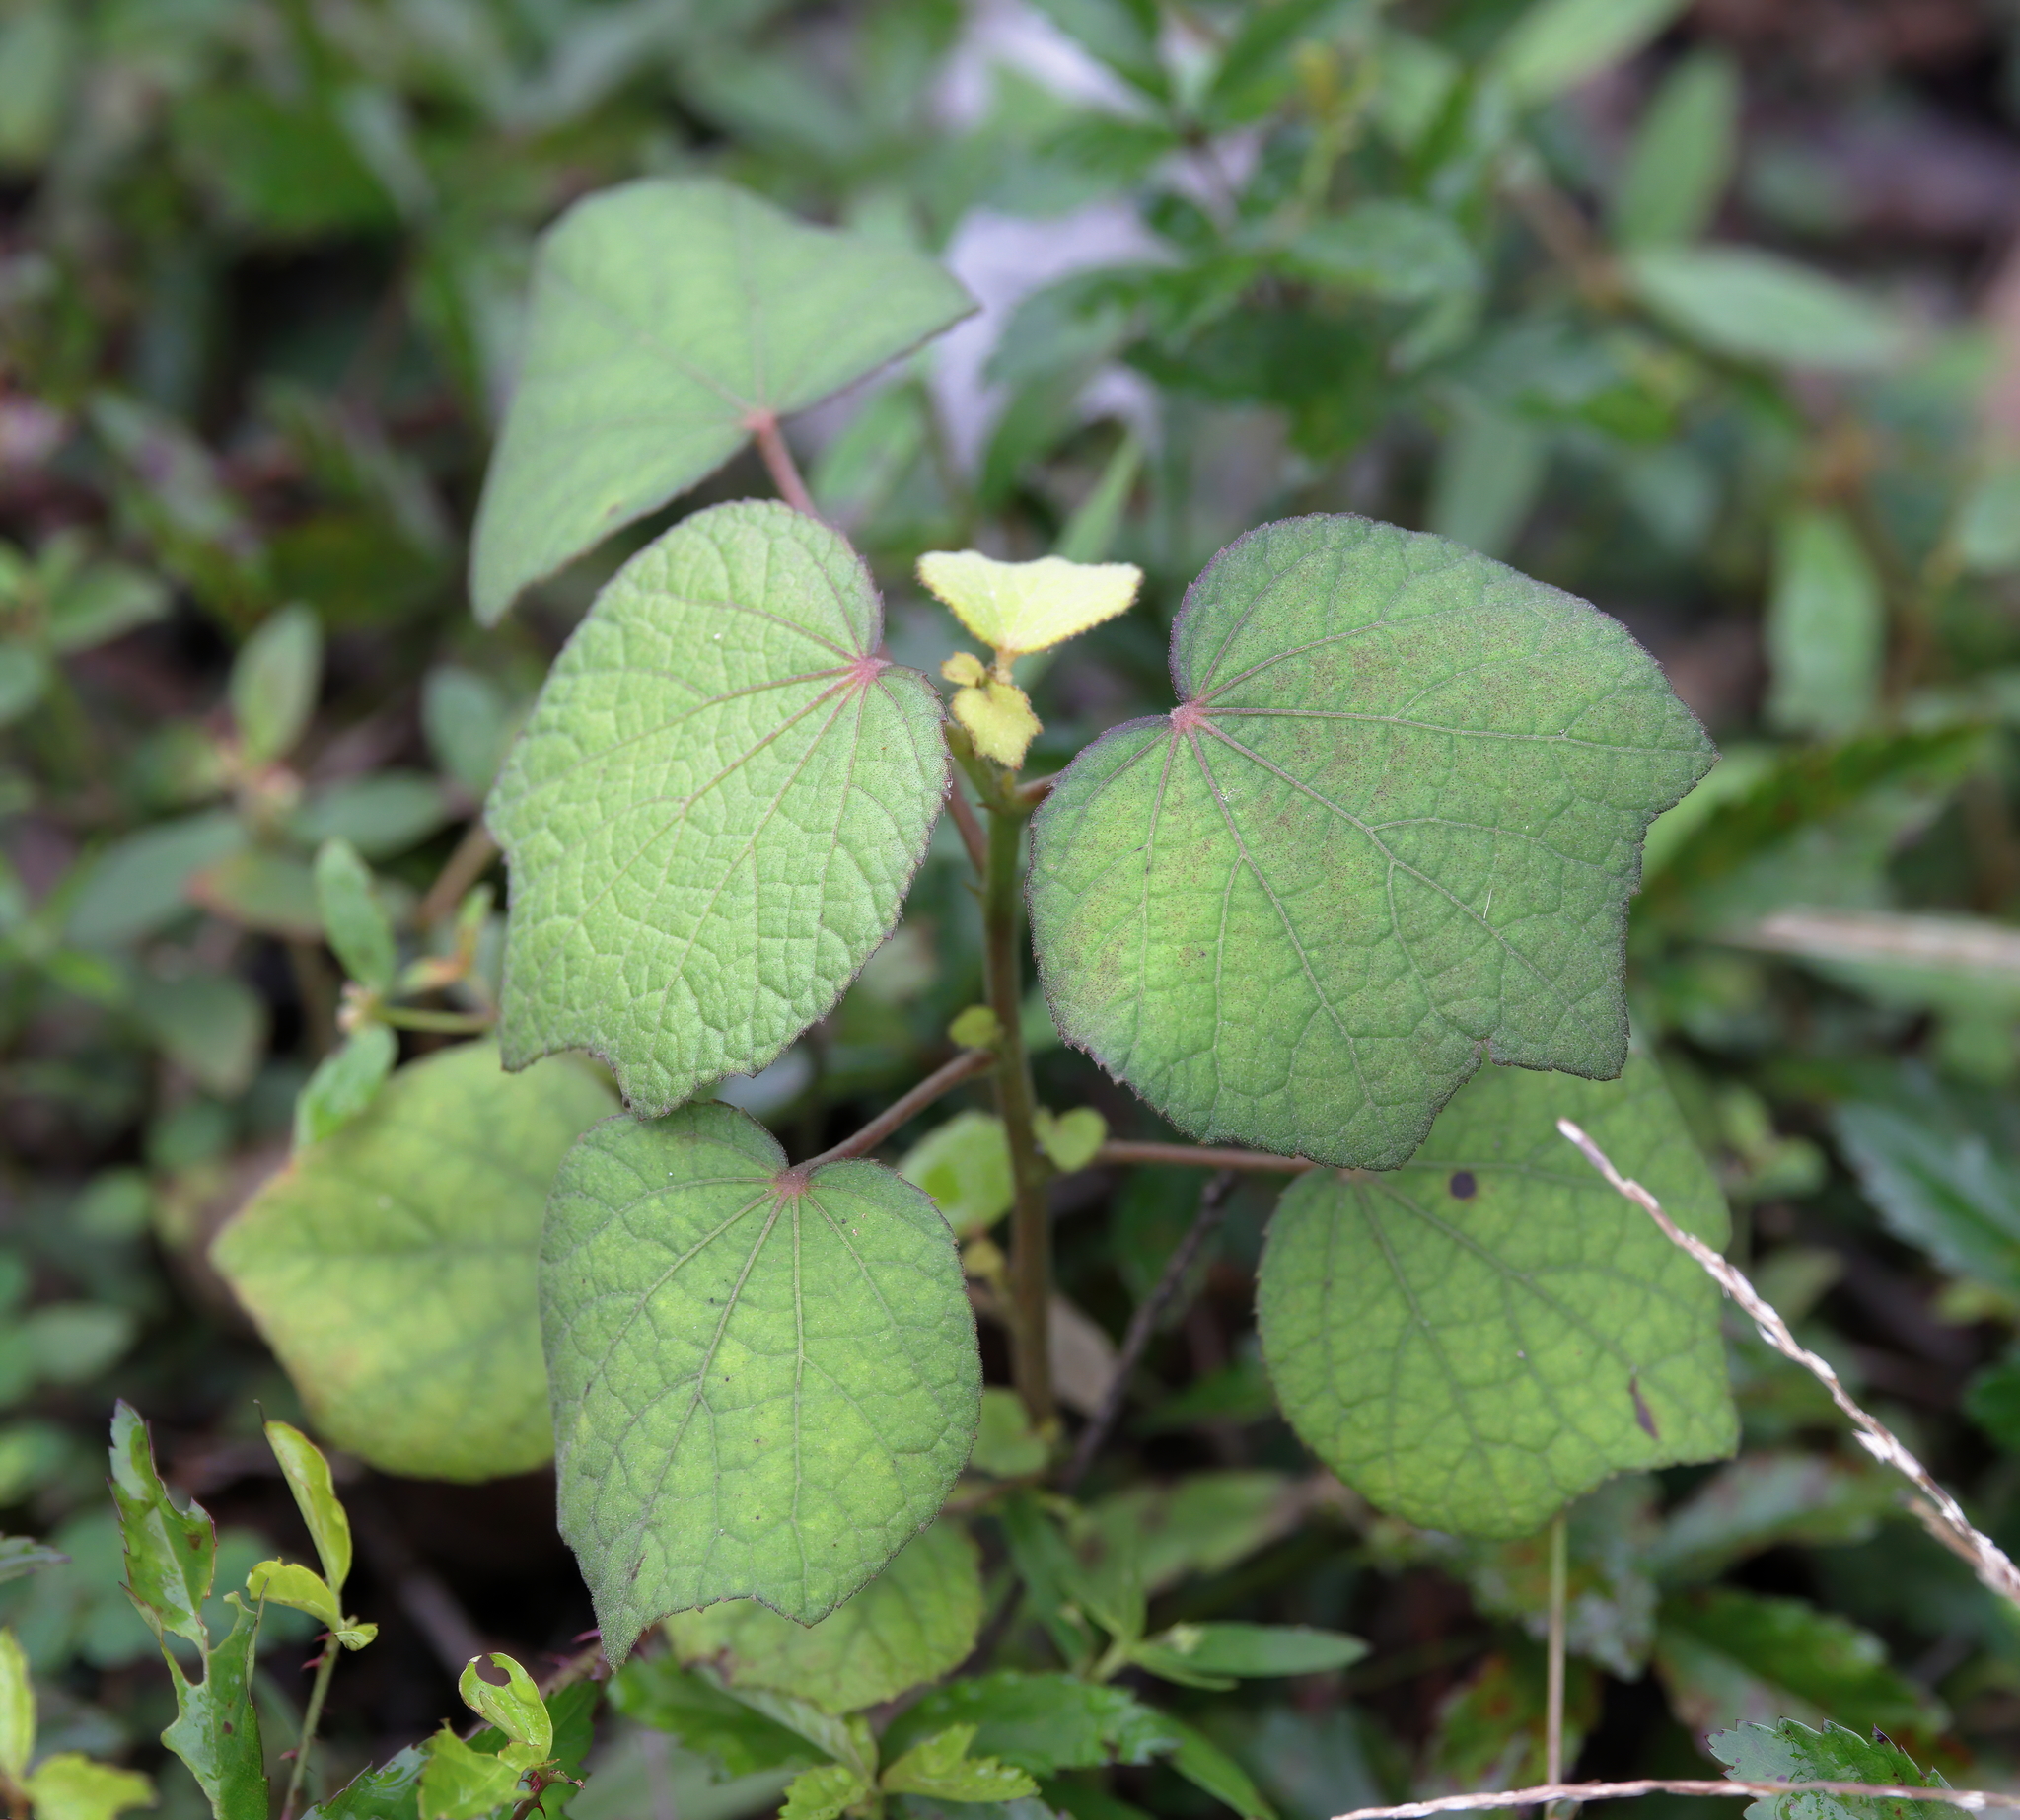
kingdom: Plantae
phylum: Tracheophyta
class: Magnoliopsida
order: Malvales
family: Malvaceae
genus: Urena
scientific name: Urena lobata
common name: Caesarweed
